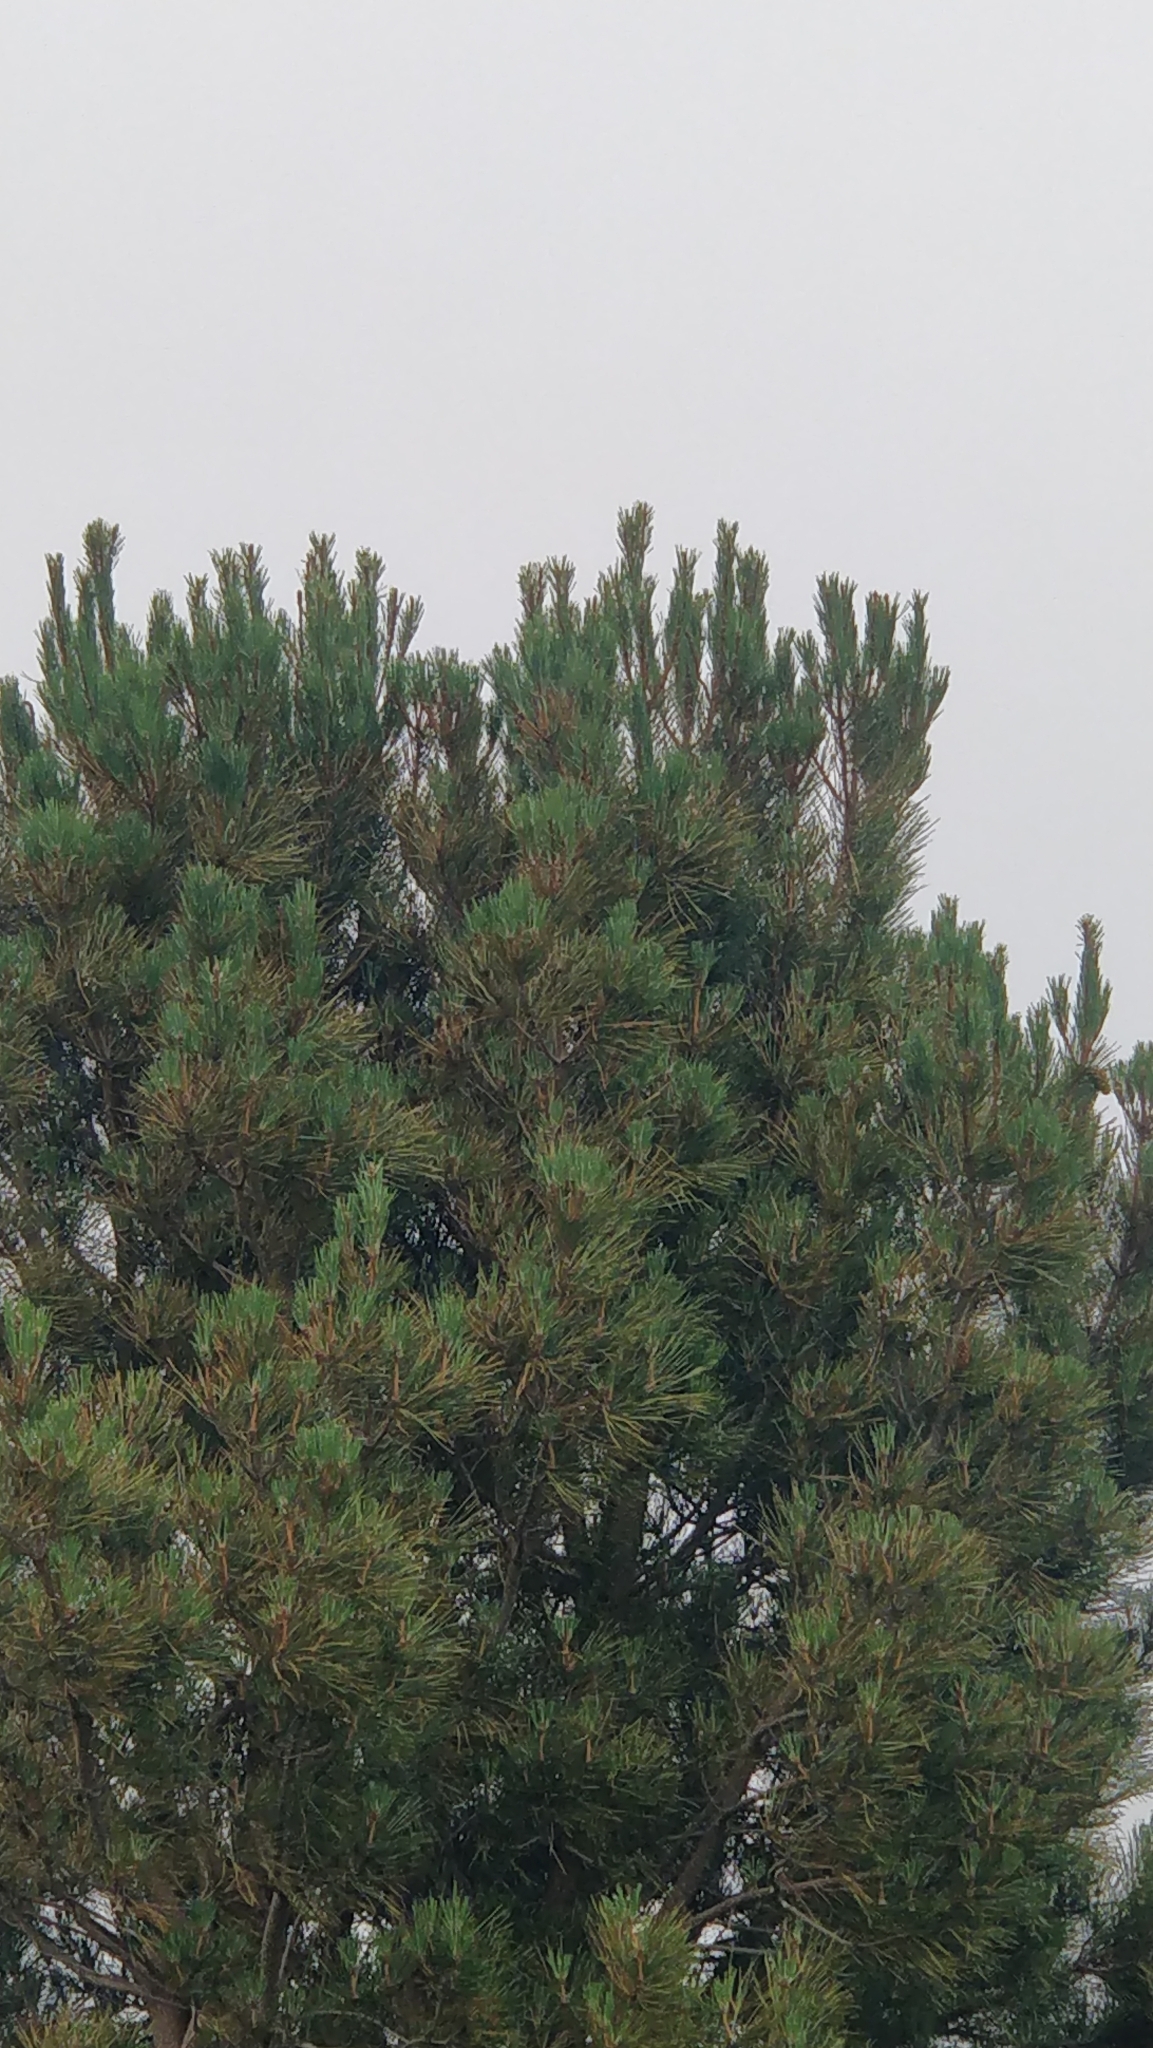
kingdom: Plantae
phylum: Tracheophyta
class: Pinopsida
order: Pinales
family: Pinaceae
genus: Pinus
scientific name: Pinus pinaster
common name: Maritime pine
